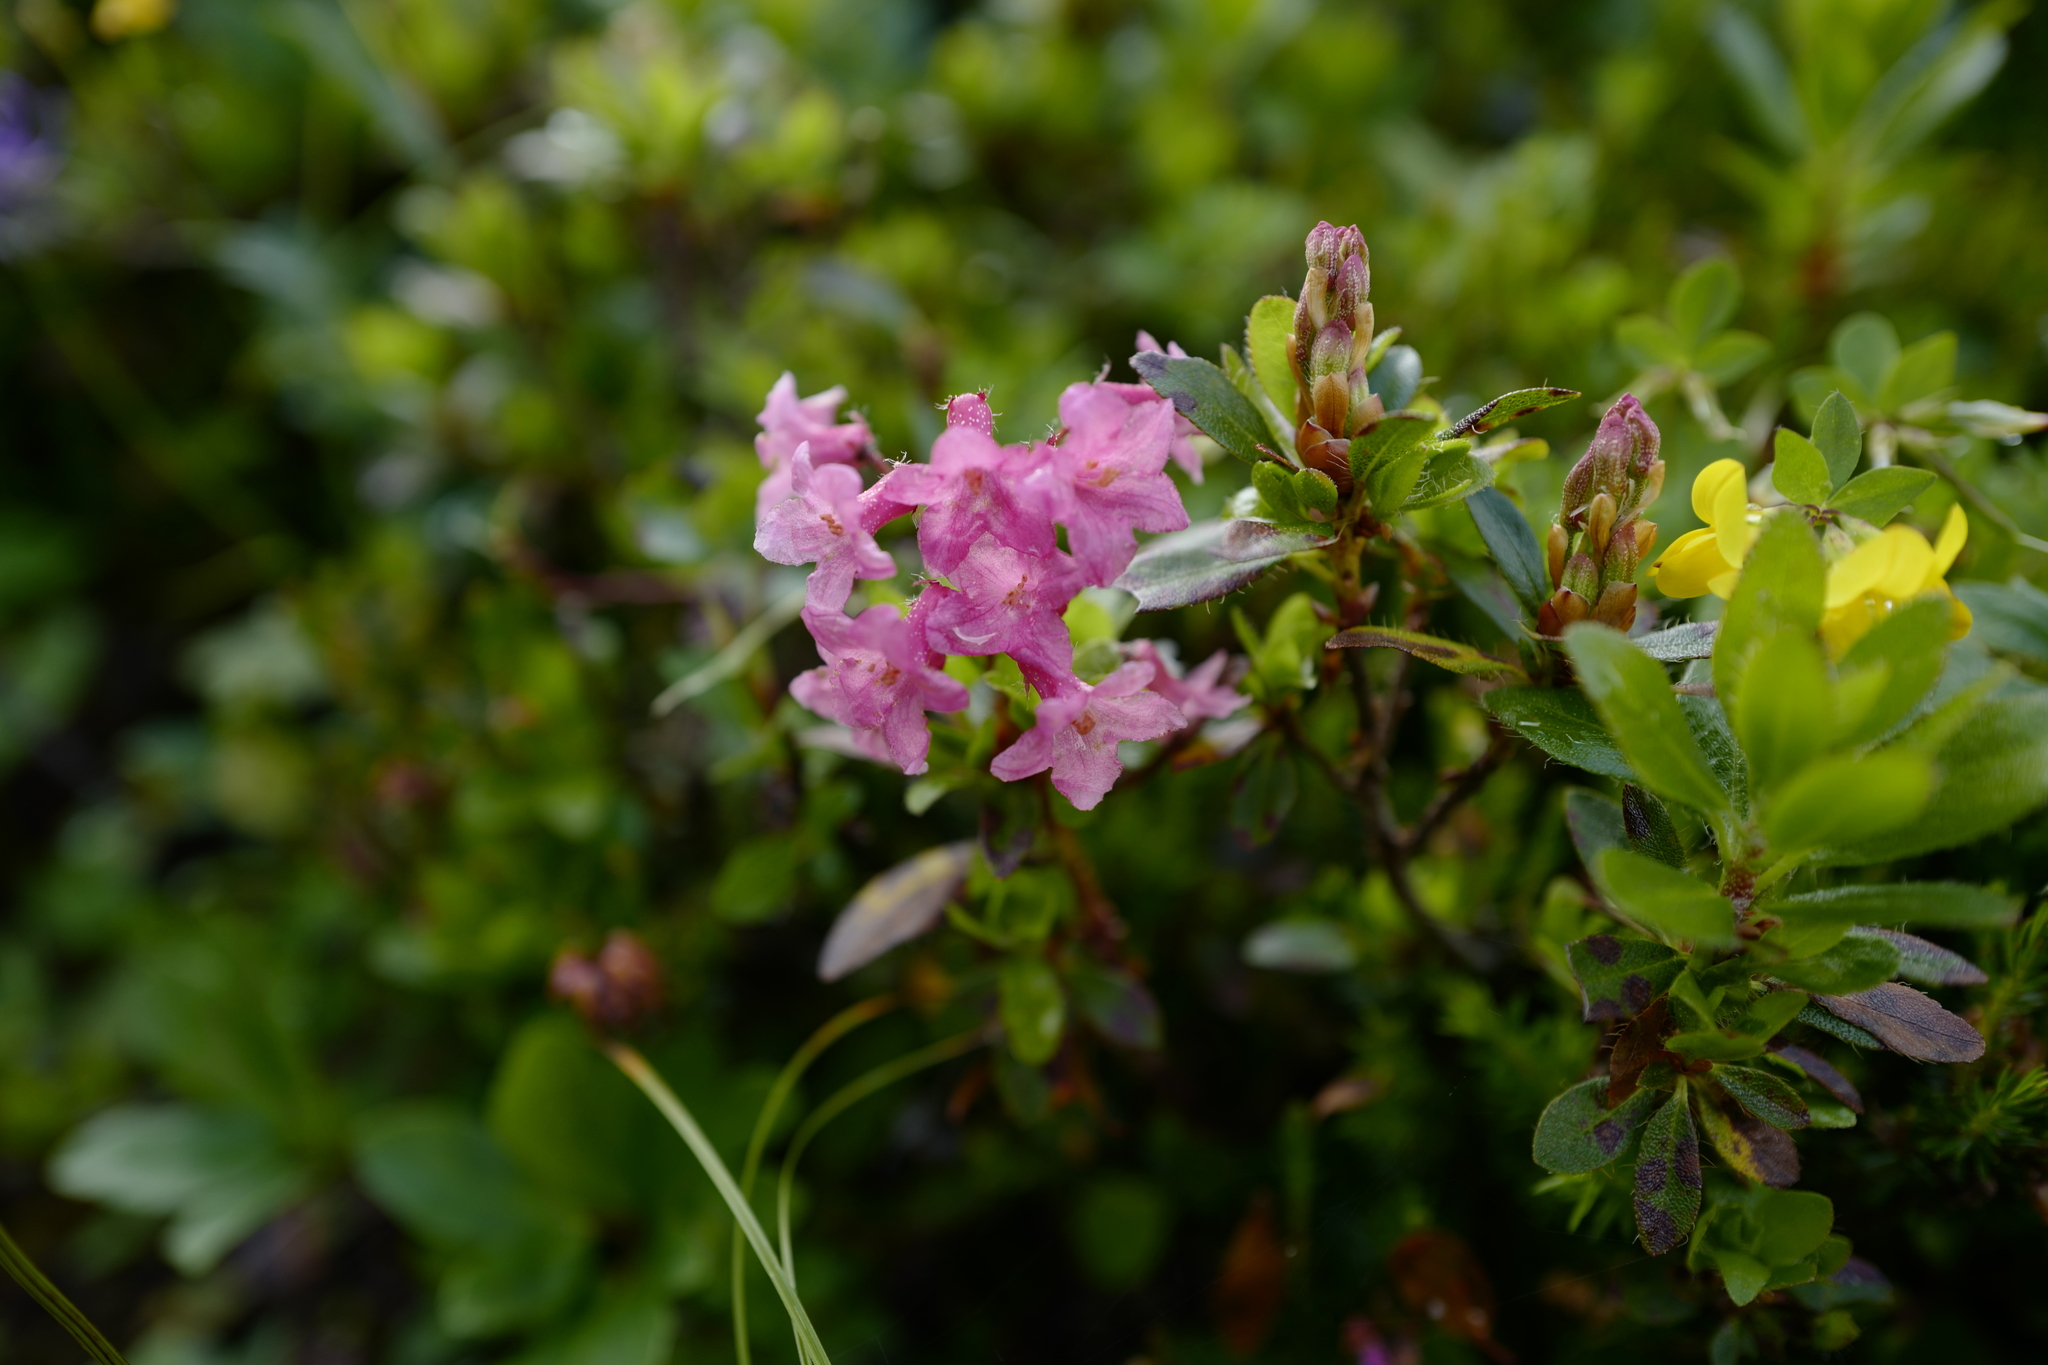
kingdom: Plantae
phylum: Tracheophyta
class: Magnoliopsida
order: Ericales
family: Ericaceae
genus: Rhododendron
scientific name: Rhododendron hirsutum
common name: Hairy alpenrose
